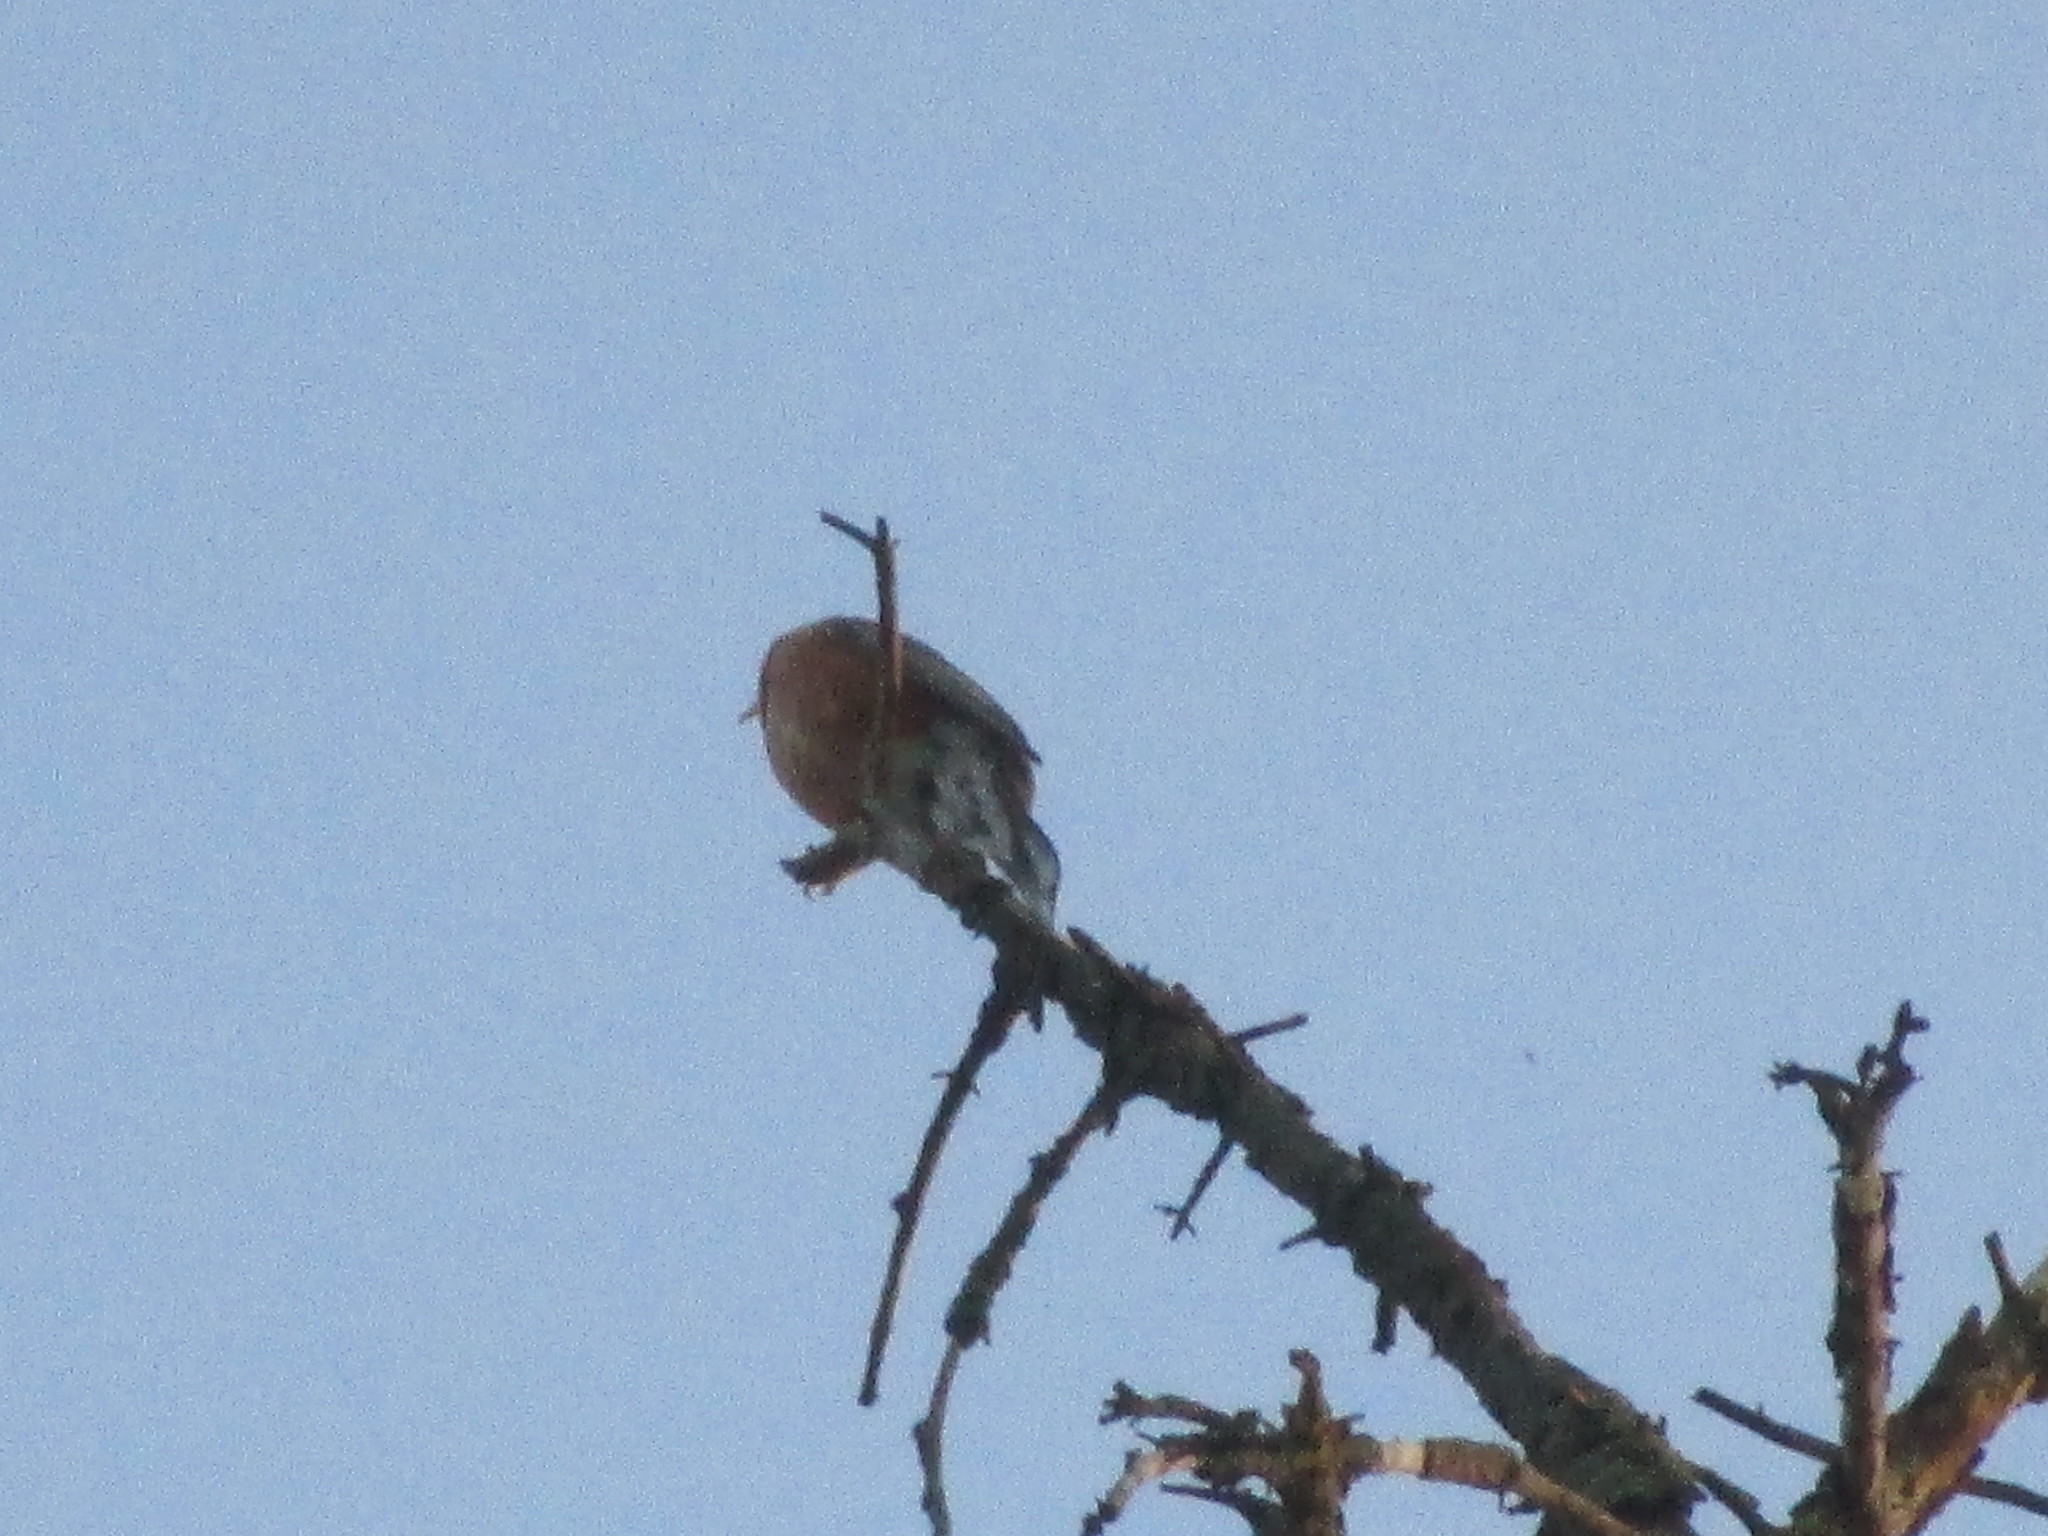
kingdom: Animalia
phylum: Chordata
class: Aves
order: Passeriformes
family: Turdidae
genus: Turdus
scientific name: Turdus migratorius
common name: American robin
